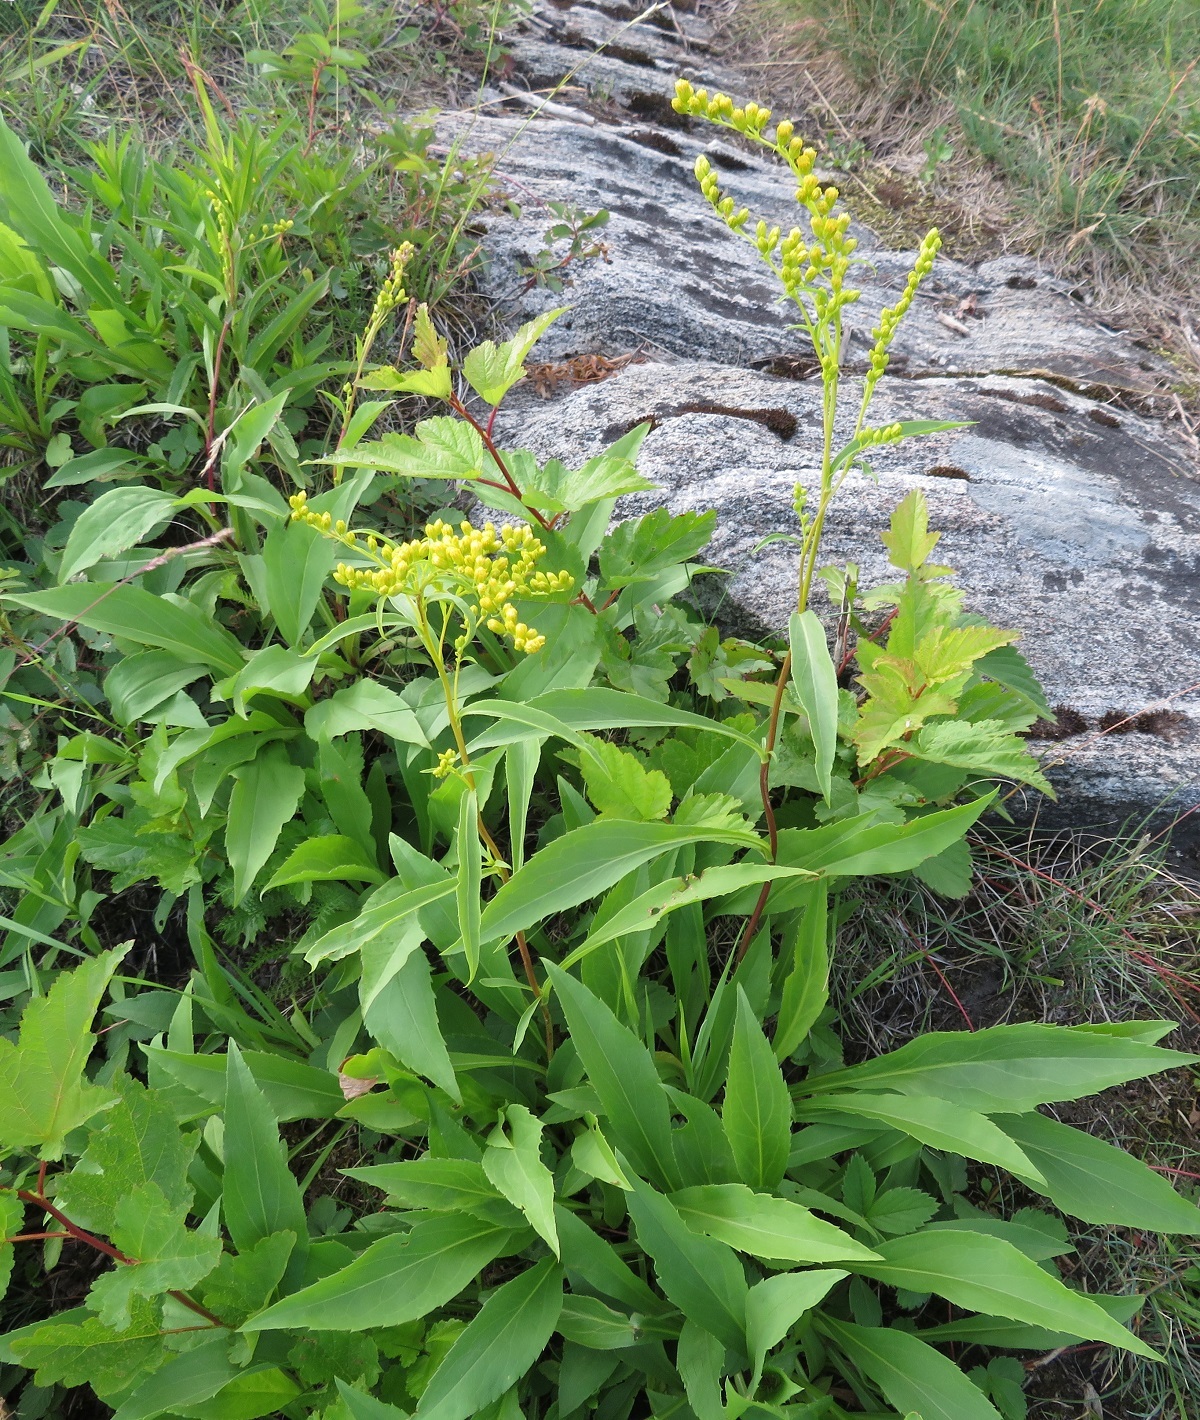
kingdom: Plantae
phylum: Tracheophyta
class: Magnoliopsida
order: Asterales
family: Asteraceae
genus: Solidago
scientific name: Solidago juncea
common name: Early goldenrod
